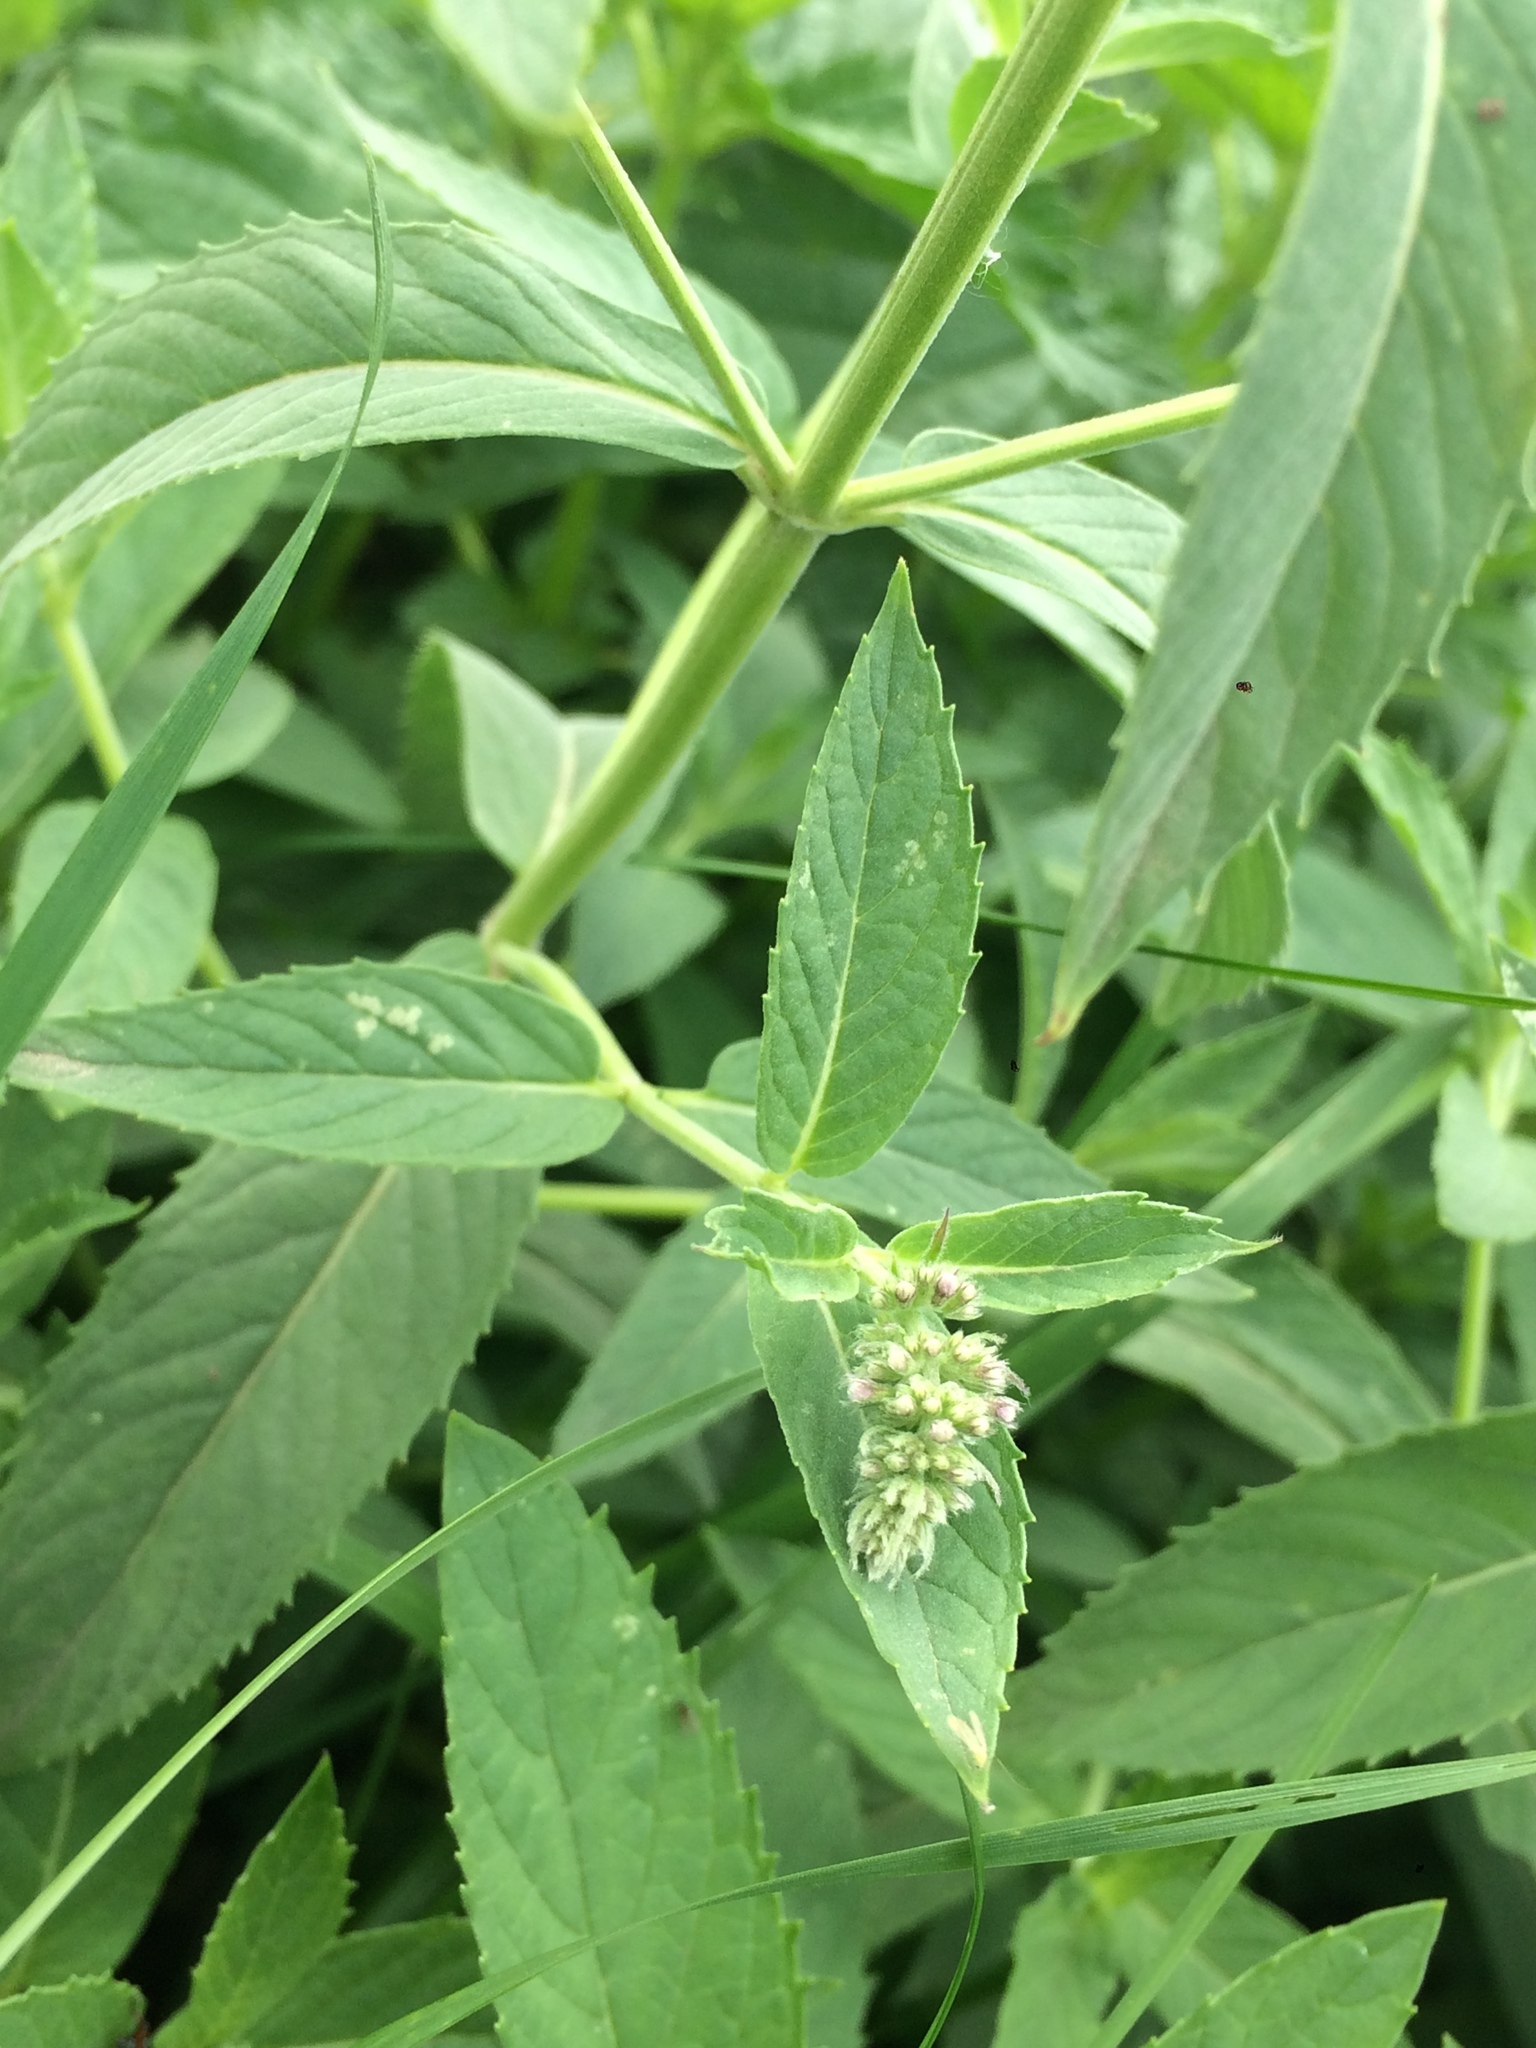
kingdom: Plantae
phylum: Tracheophyta
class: Magnoliopsida
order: Lamiales
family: Lamiaceae
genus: Mentha
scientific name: Mentha longifolia
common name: Horse mint
